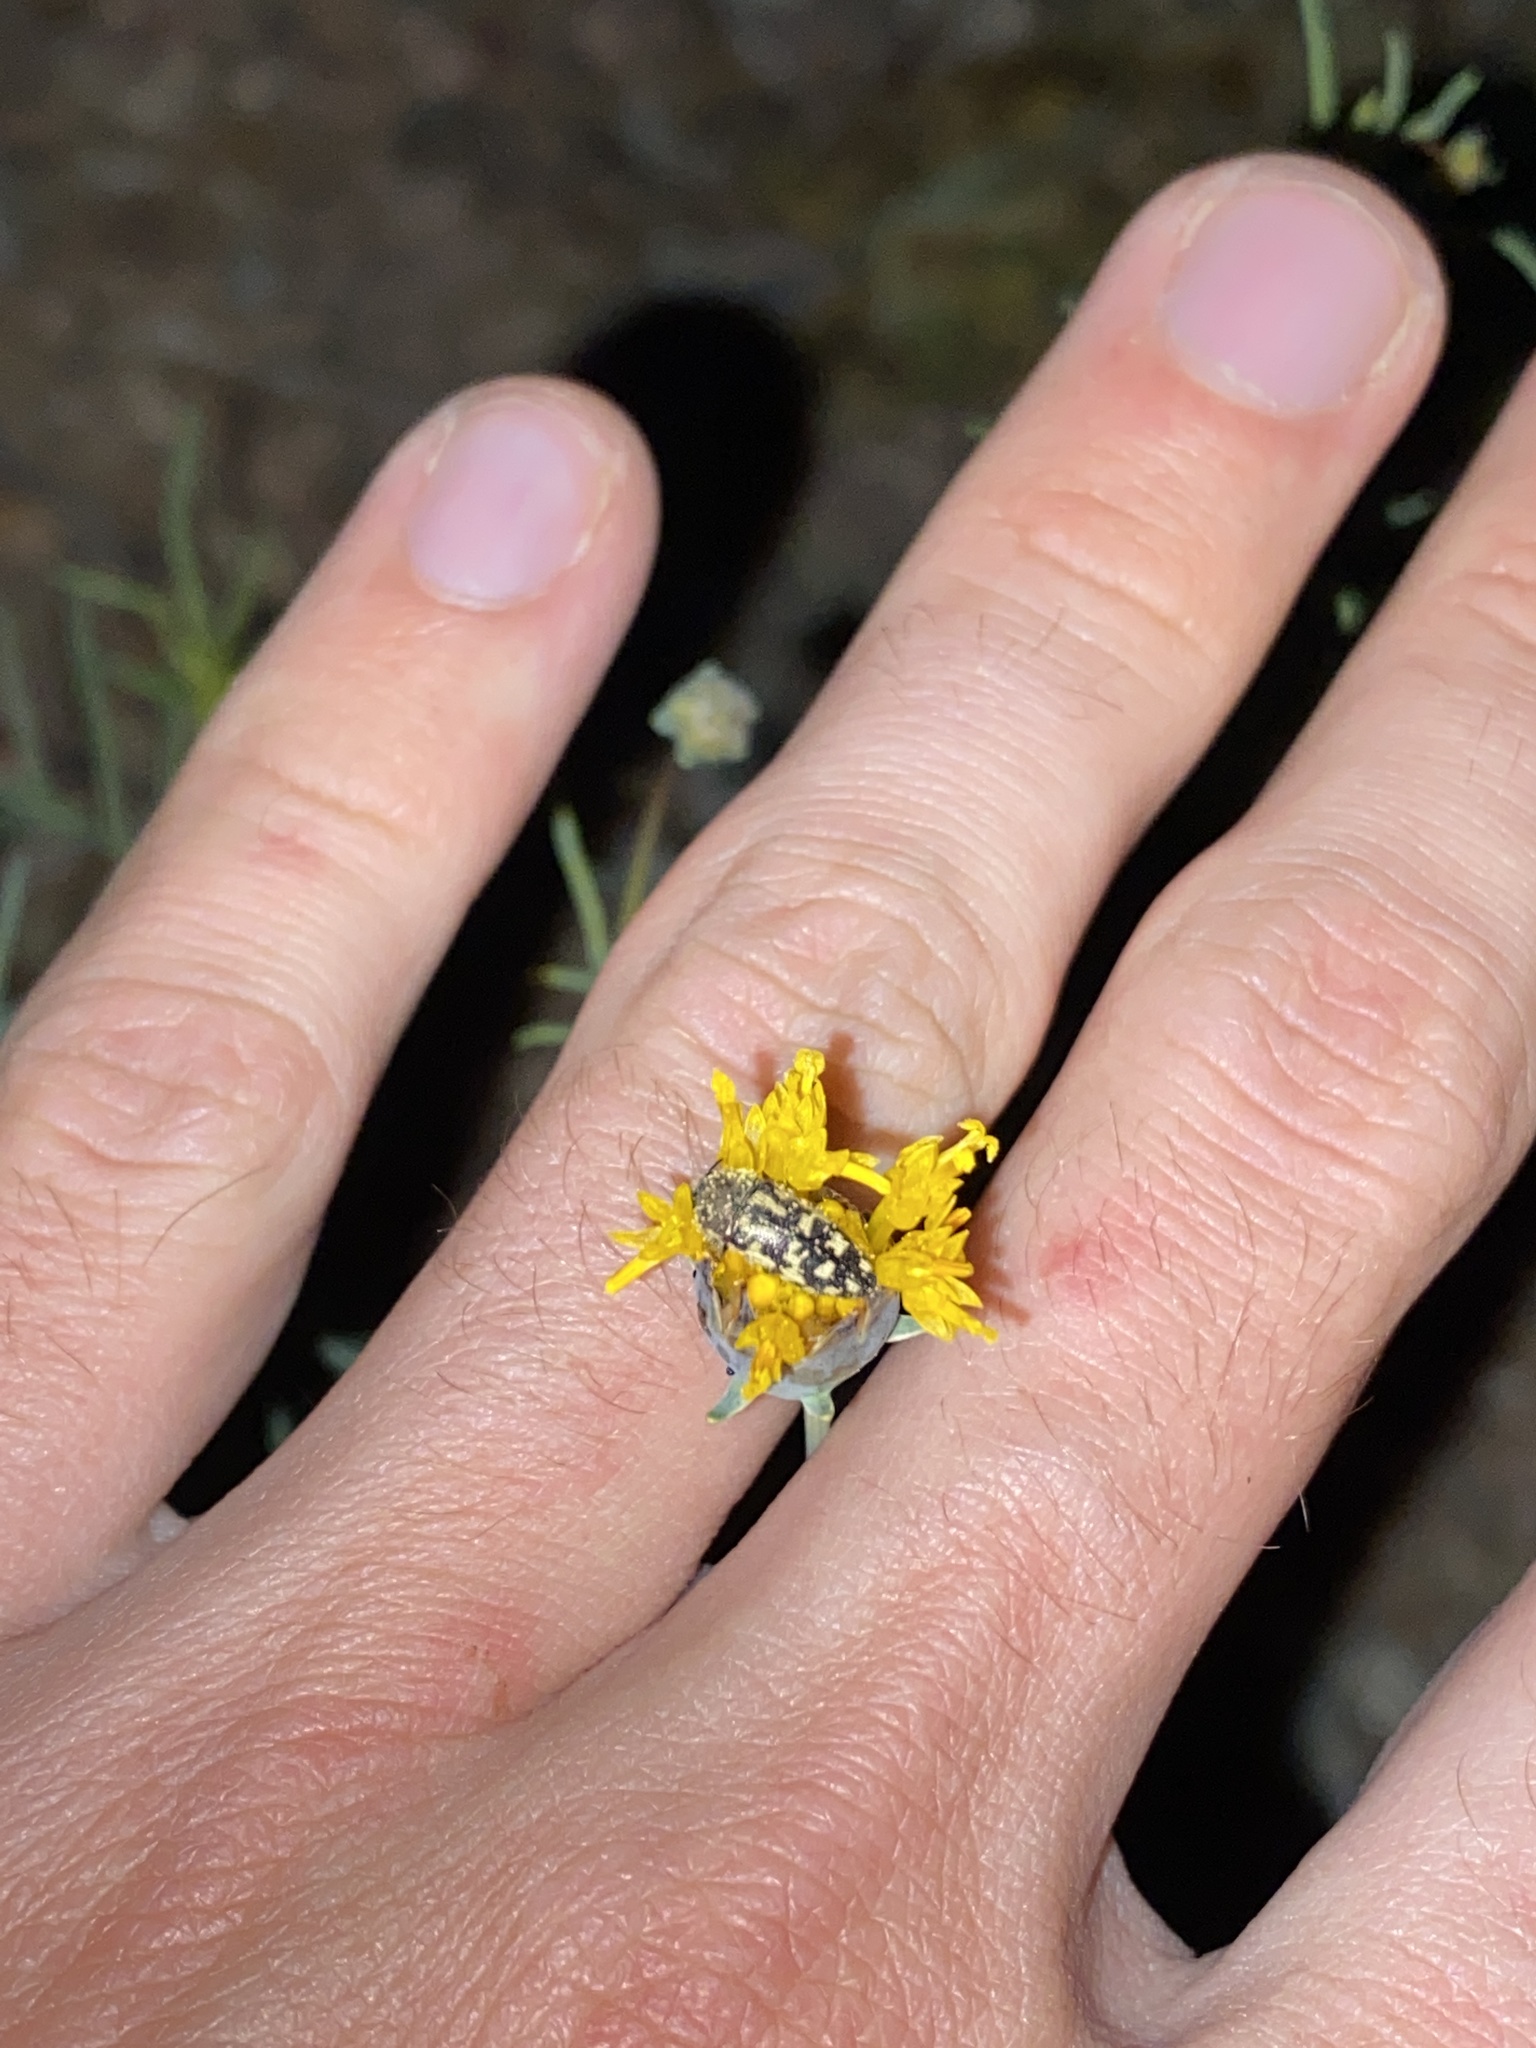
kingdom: Animalia
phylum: Arthropoda
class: Insecta
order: Coleoptera
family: Buprestidae
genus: Acmaeodera
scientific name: Acmaeodera mixta
